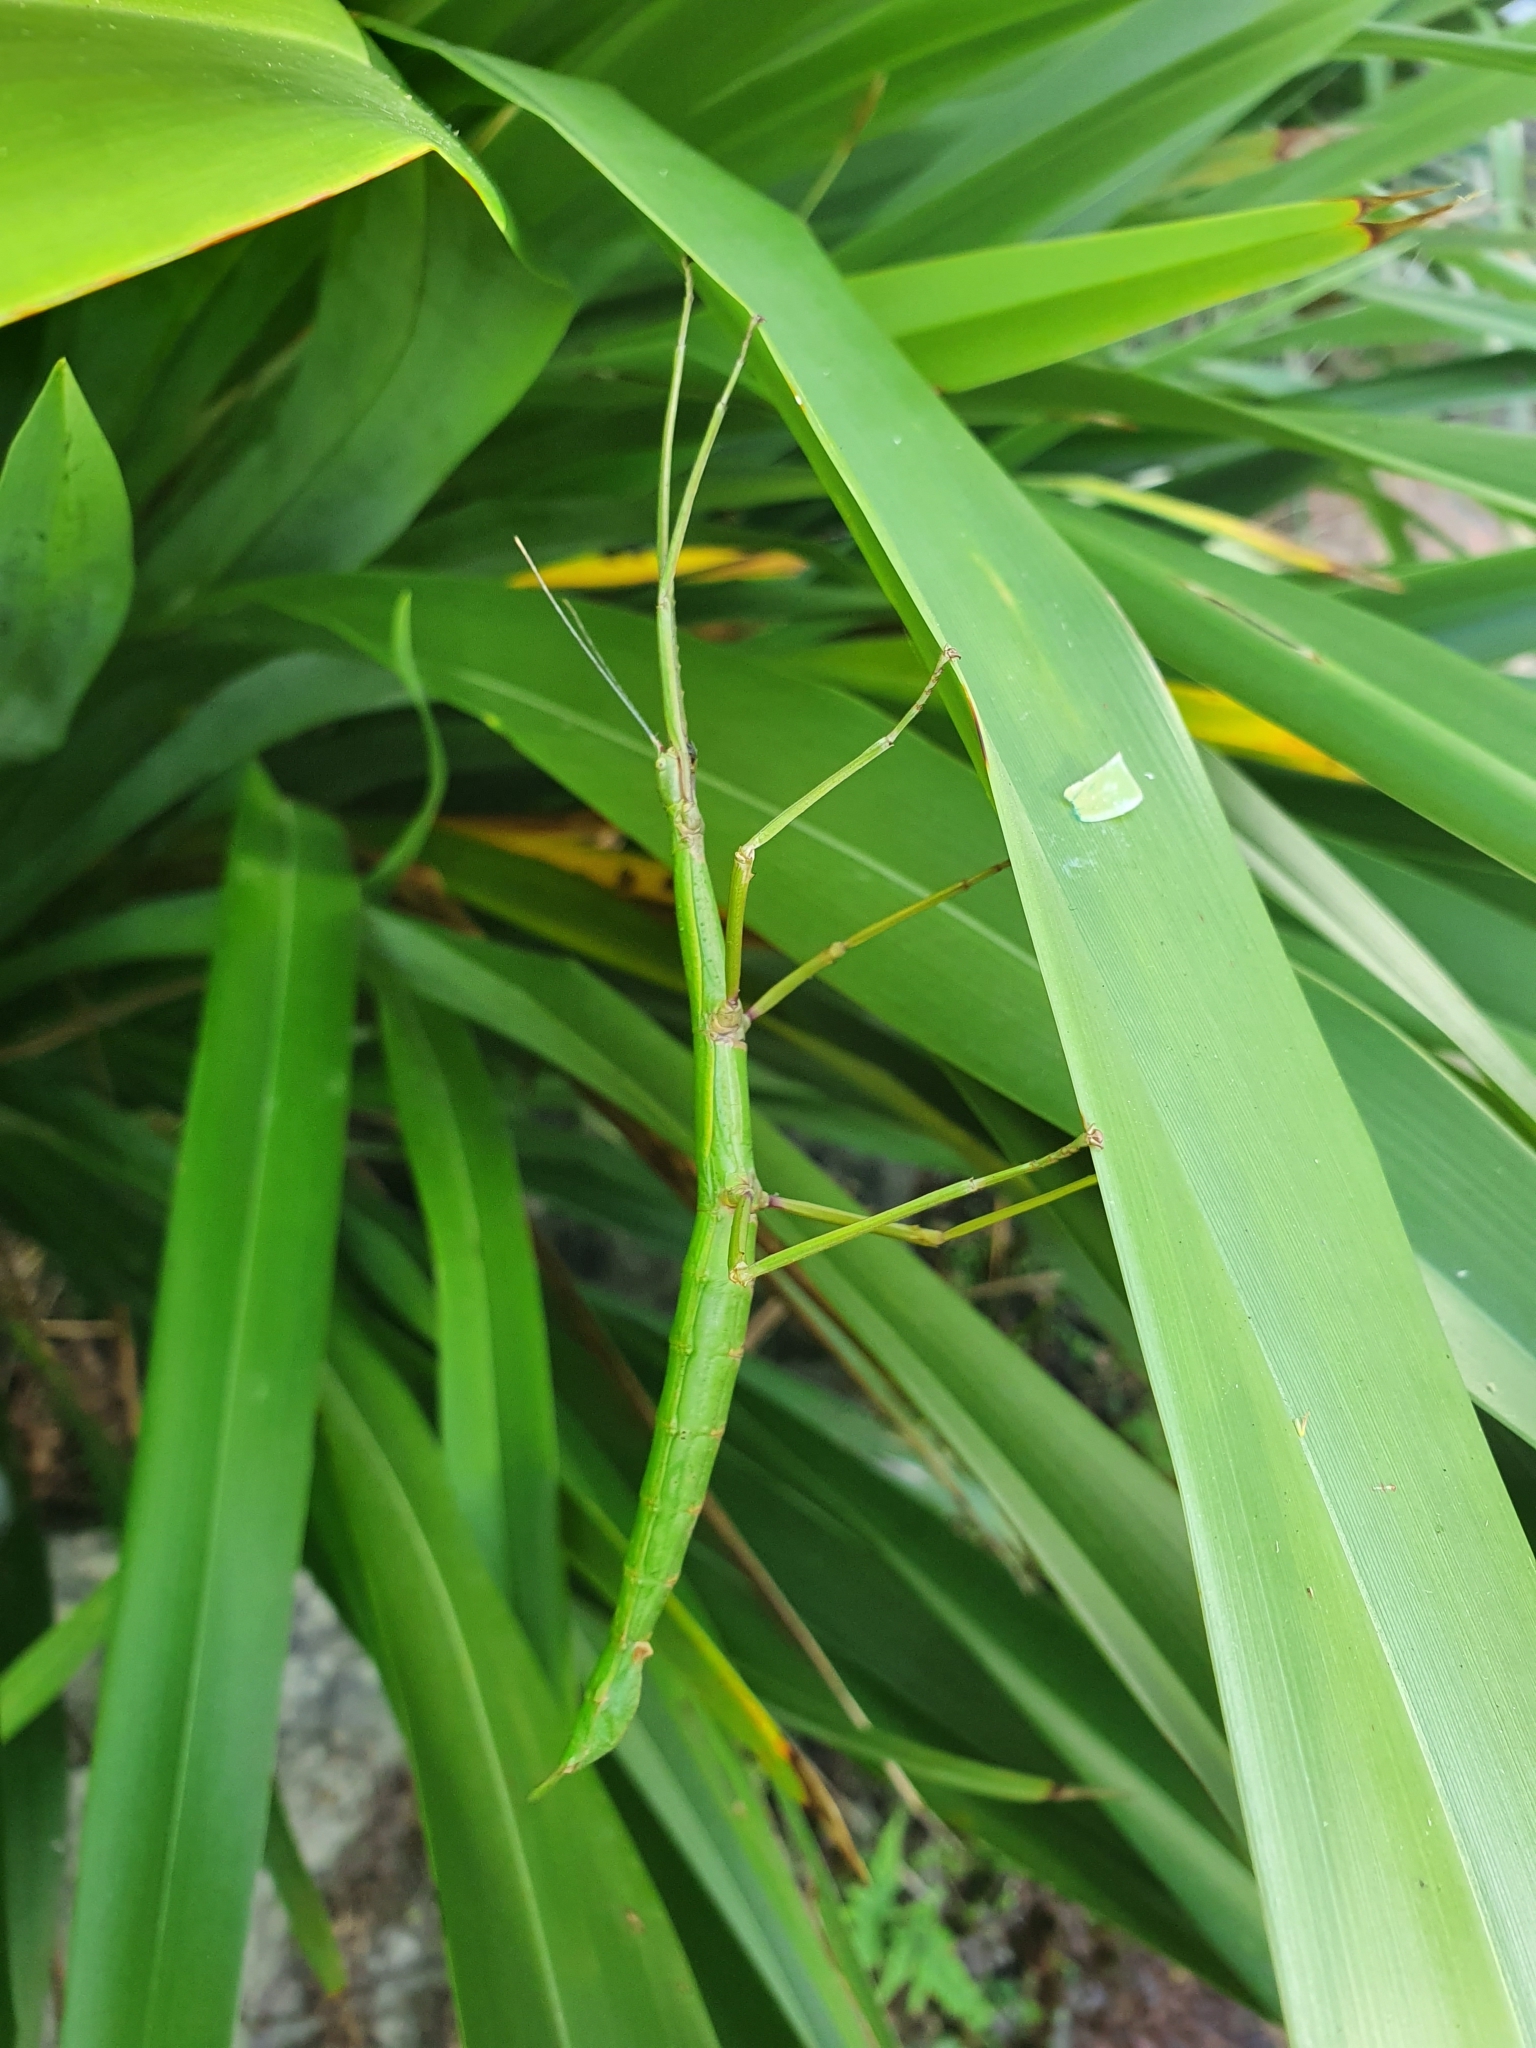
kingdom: Animalia
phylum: Arthropoda
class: Insecta
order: Phasmida
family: Phasmatidae
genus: Clitarchus
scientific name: Clitarchus hookeri
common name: Smooth stick insect
